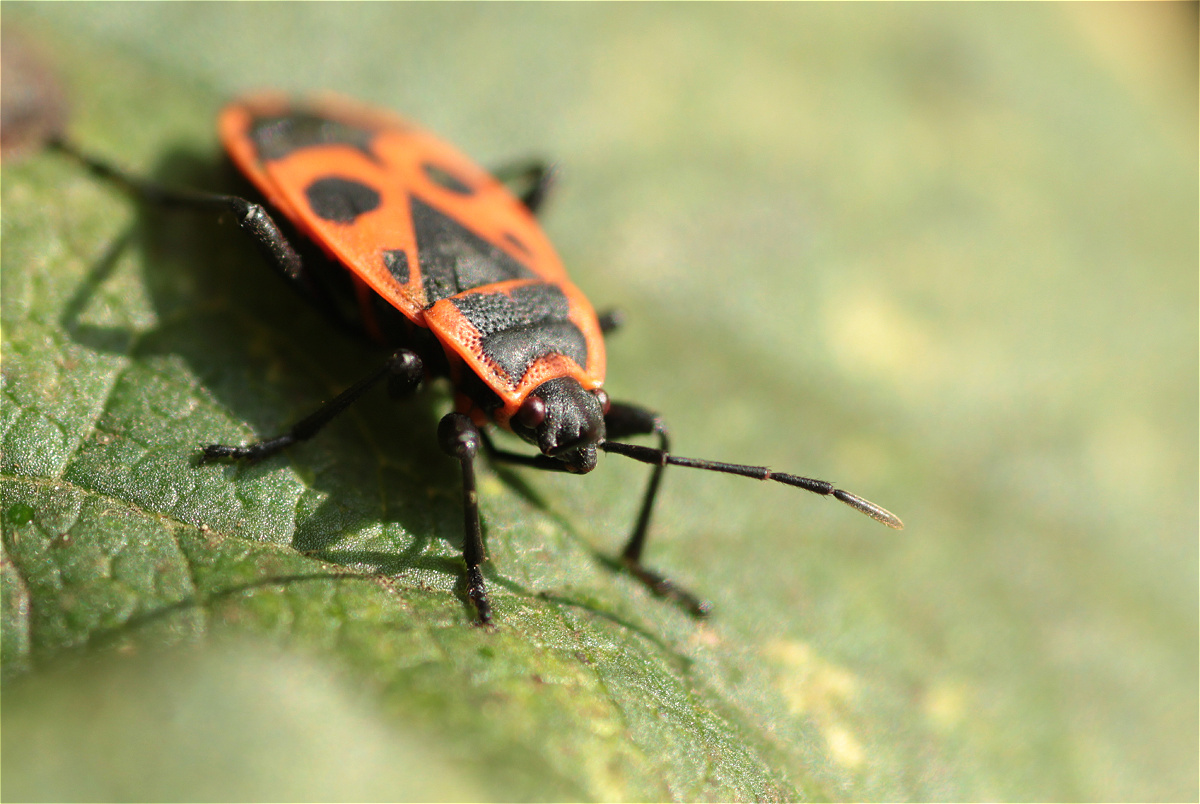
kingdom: Animalia
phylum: Arthropoda
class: Insecta
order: Hemiptera
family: Pyrrhocoridae
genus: Pyrrhocoris
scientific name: Pyrrhocoris apterus
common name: Firebug
